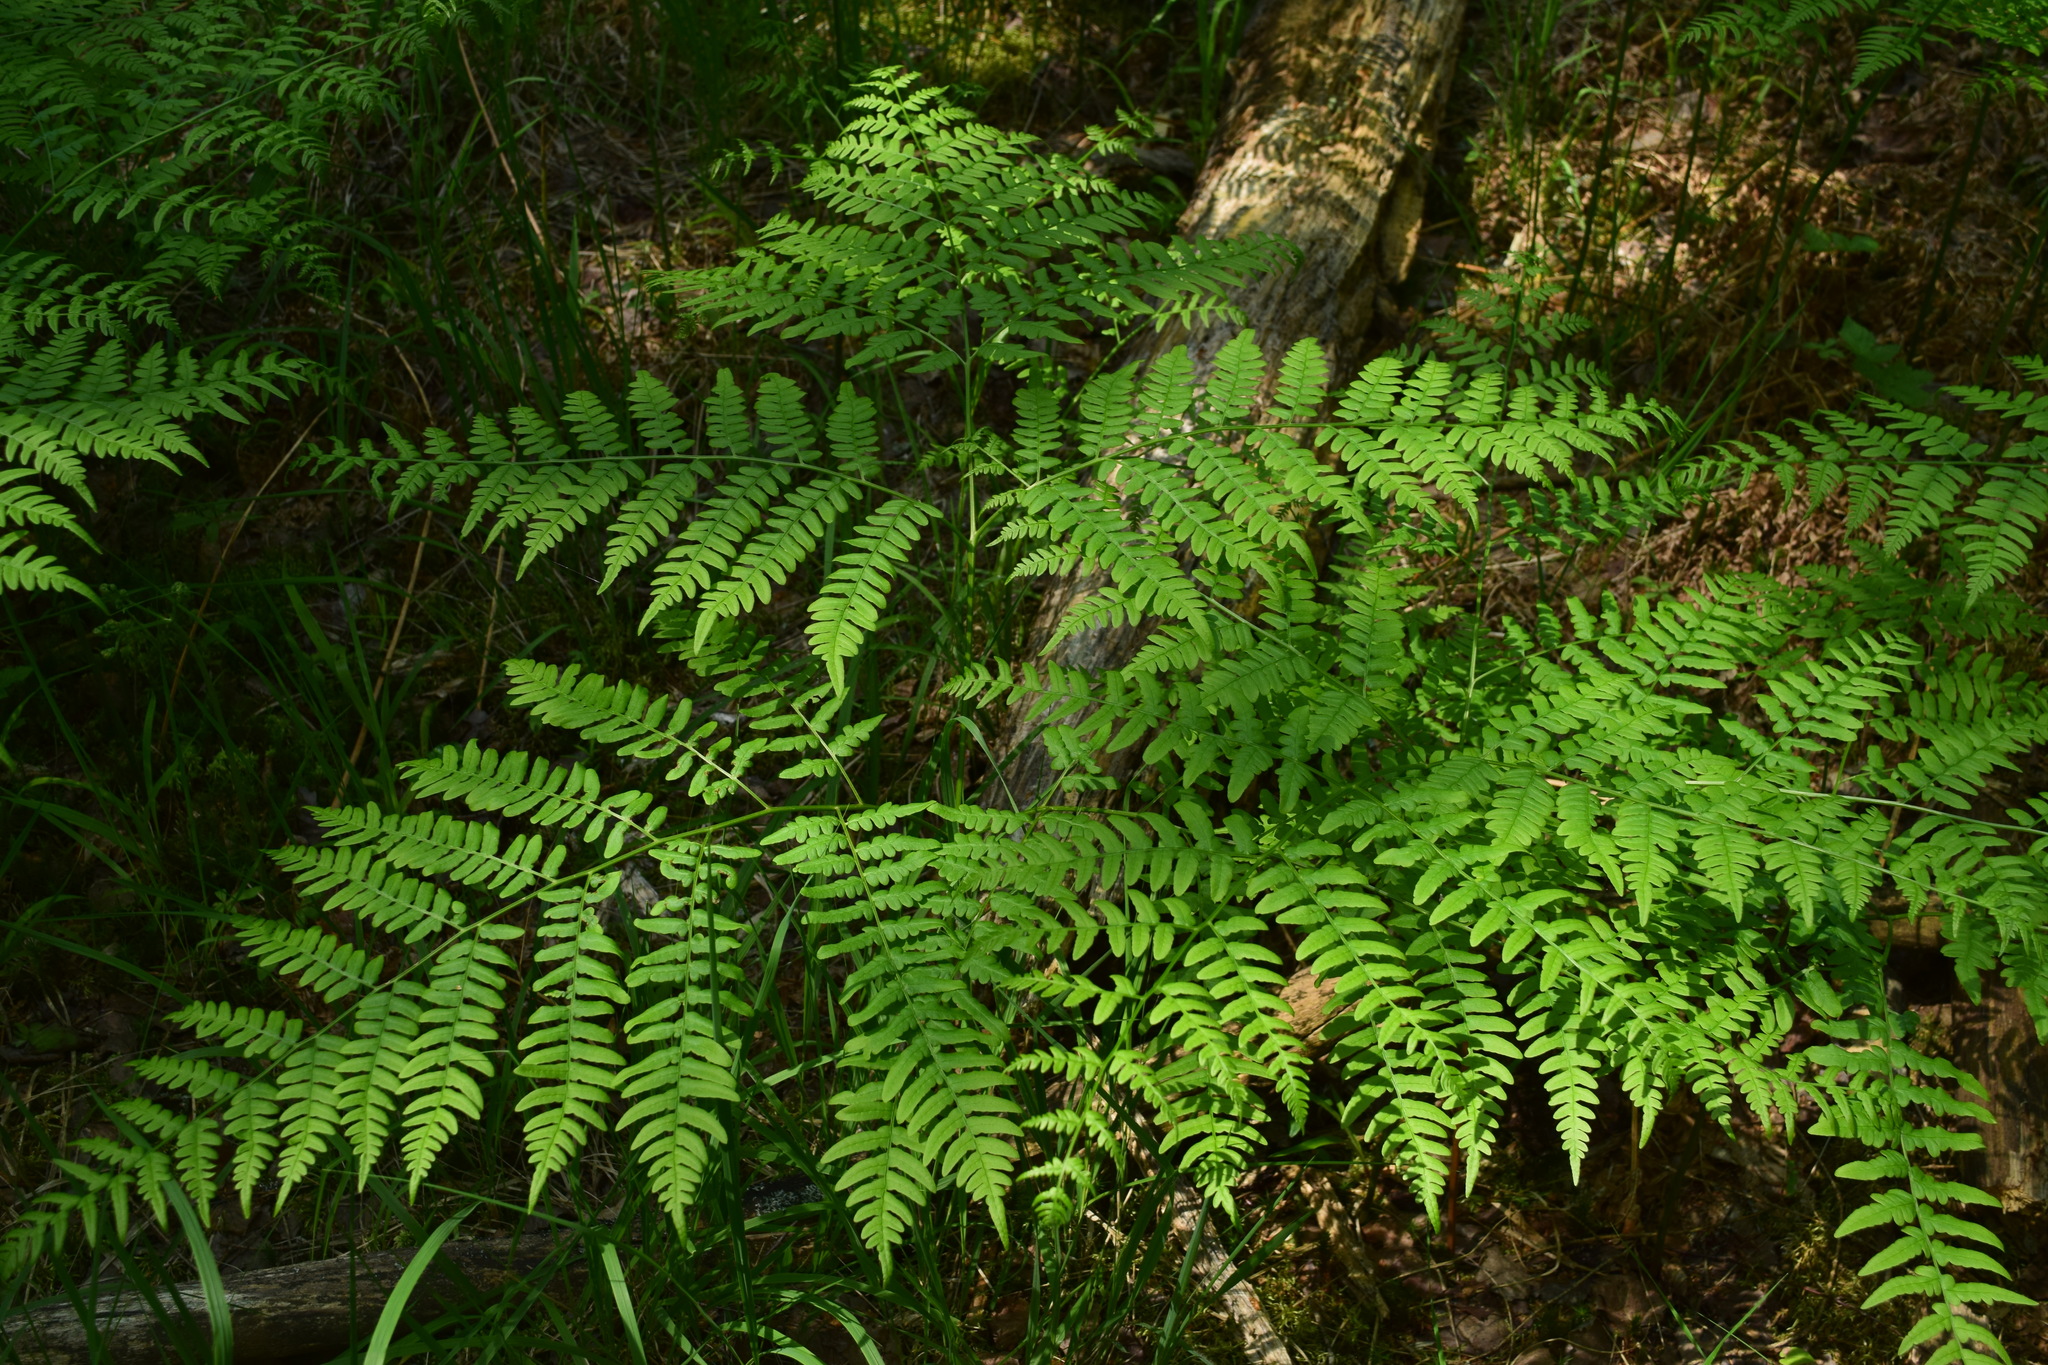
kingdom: Plantae
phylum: Tracheophyta
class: Polypodiopsida
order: Polypodiales
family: Dennstaedtiaceae
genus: Pteridium
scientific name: Pteridium aquilinum
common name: Bracken
